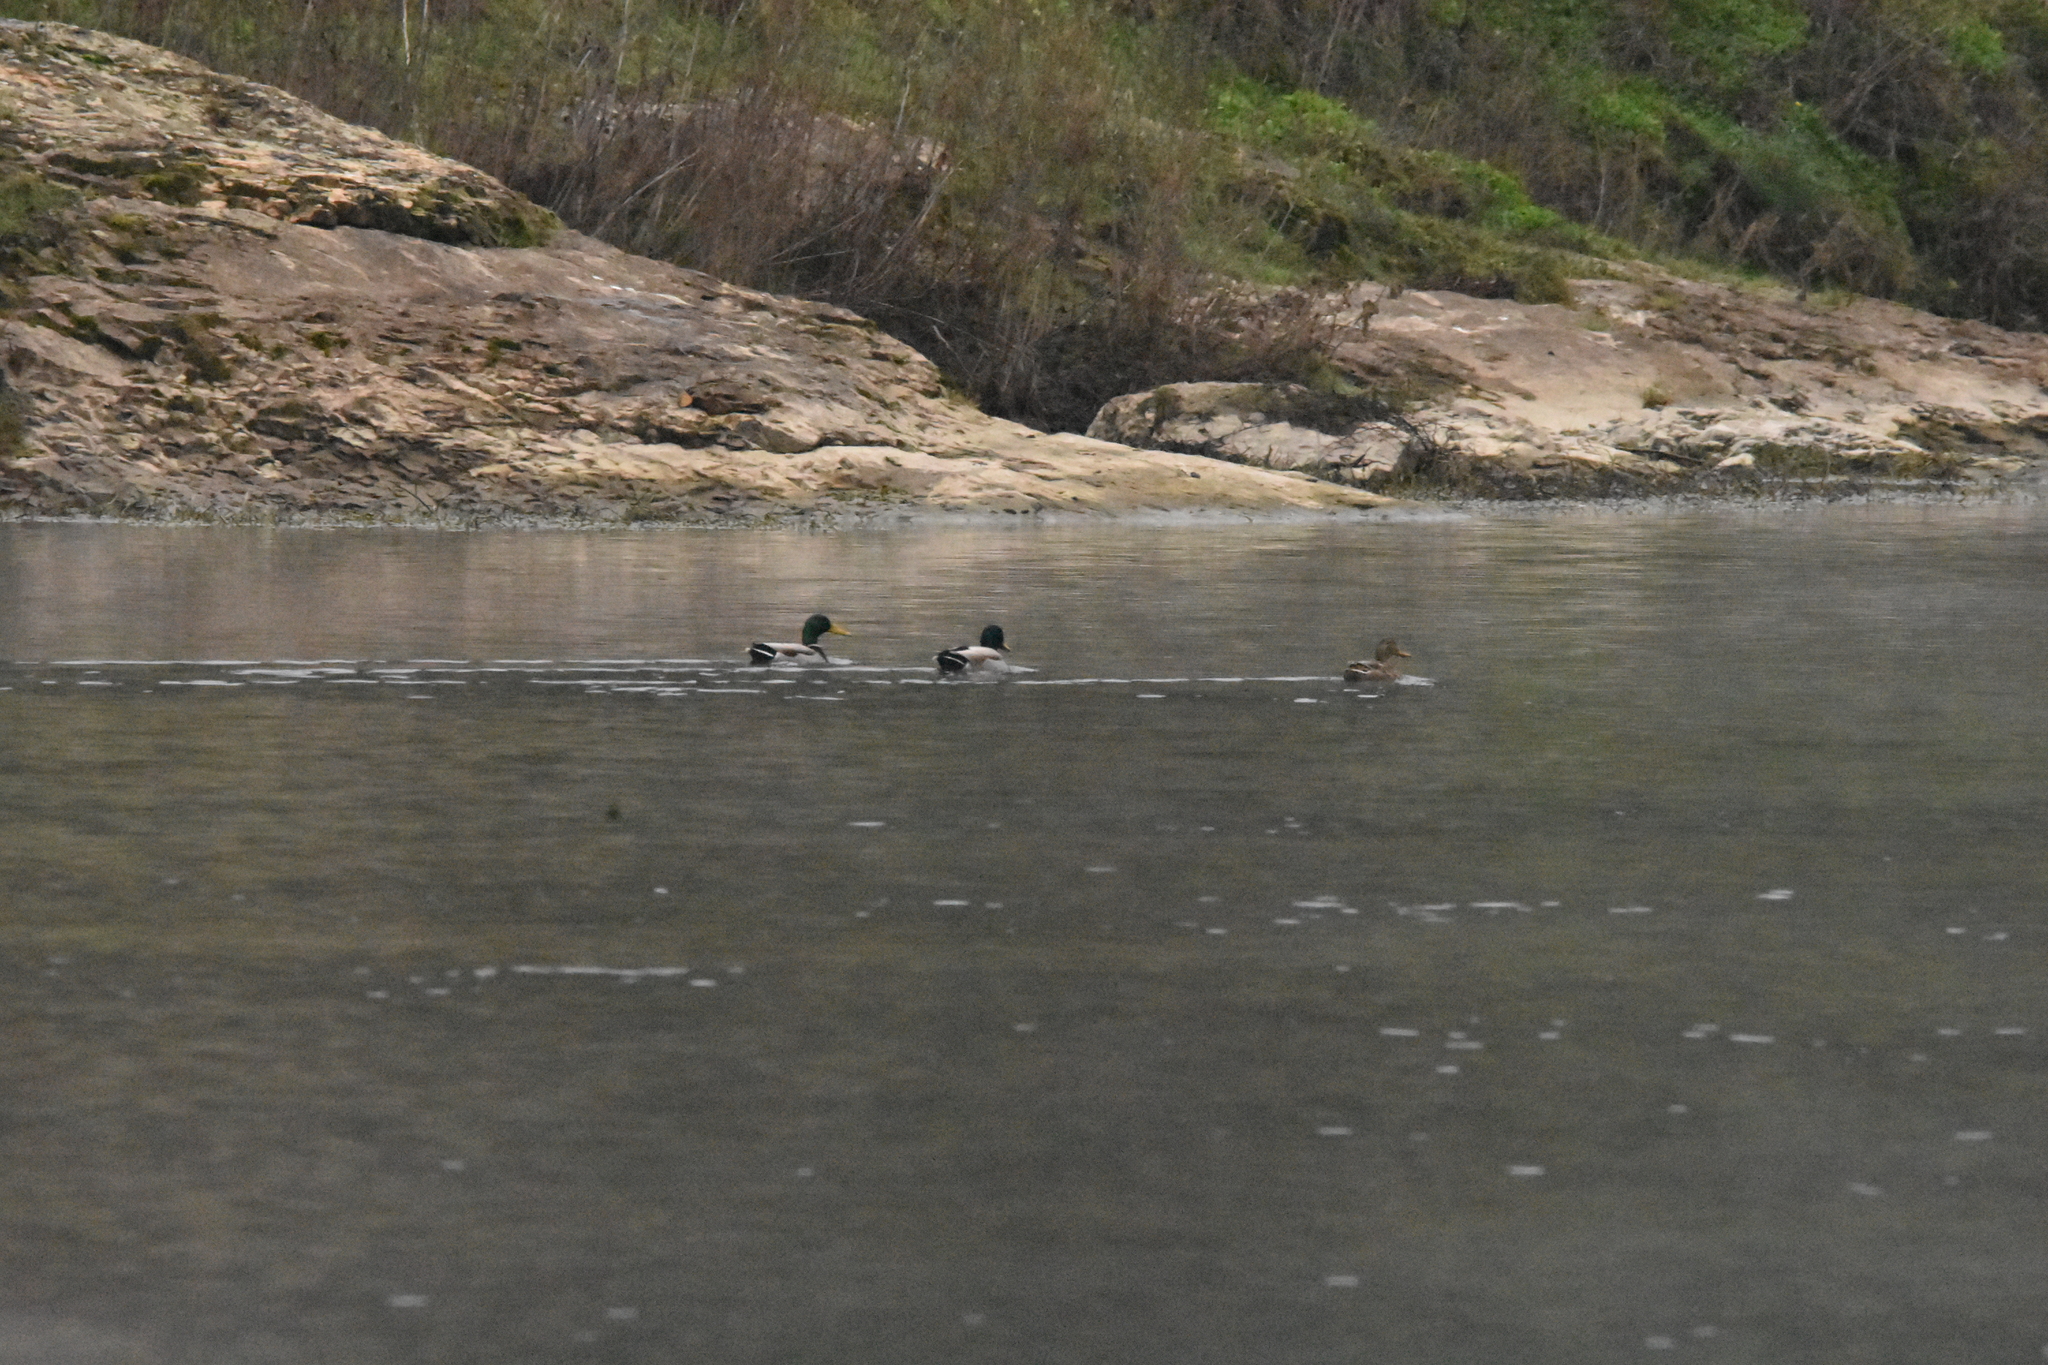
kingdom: Animalia
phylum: Chordata
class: Aves
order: Anseriformes
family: Anatidae
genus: Anas
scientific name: Anas platyrhynchos
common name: Mallard
